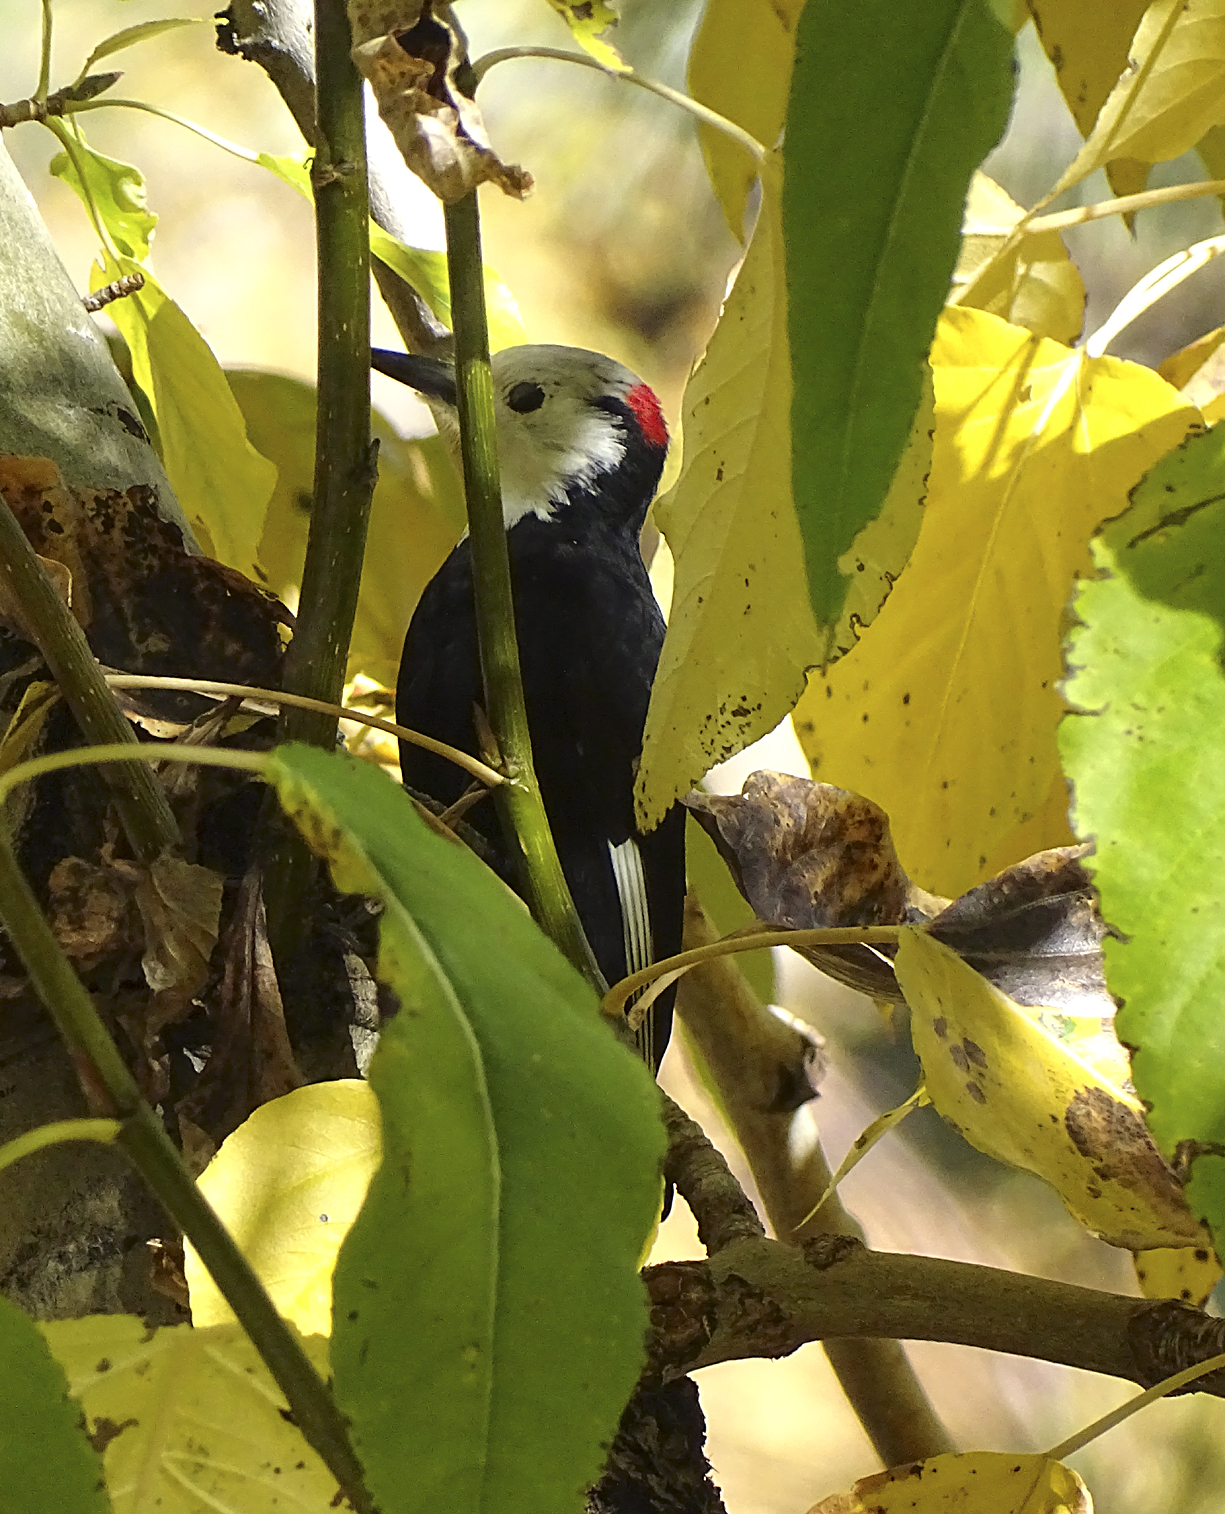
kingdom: Animalia
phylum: Chordata
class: Aves
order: Piciformes
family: Picidae
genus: Leuconotopicus
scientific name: Leuconotopicus albolarvatus
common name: White-headed woodpecker
